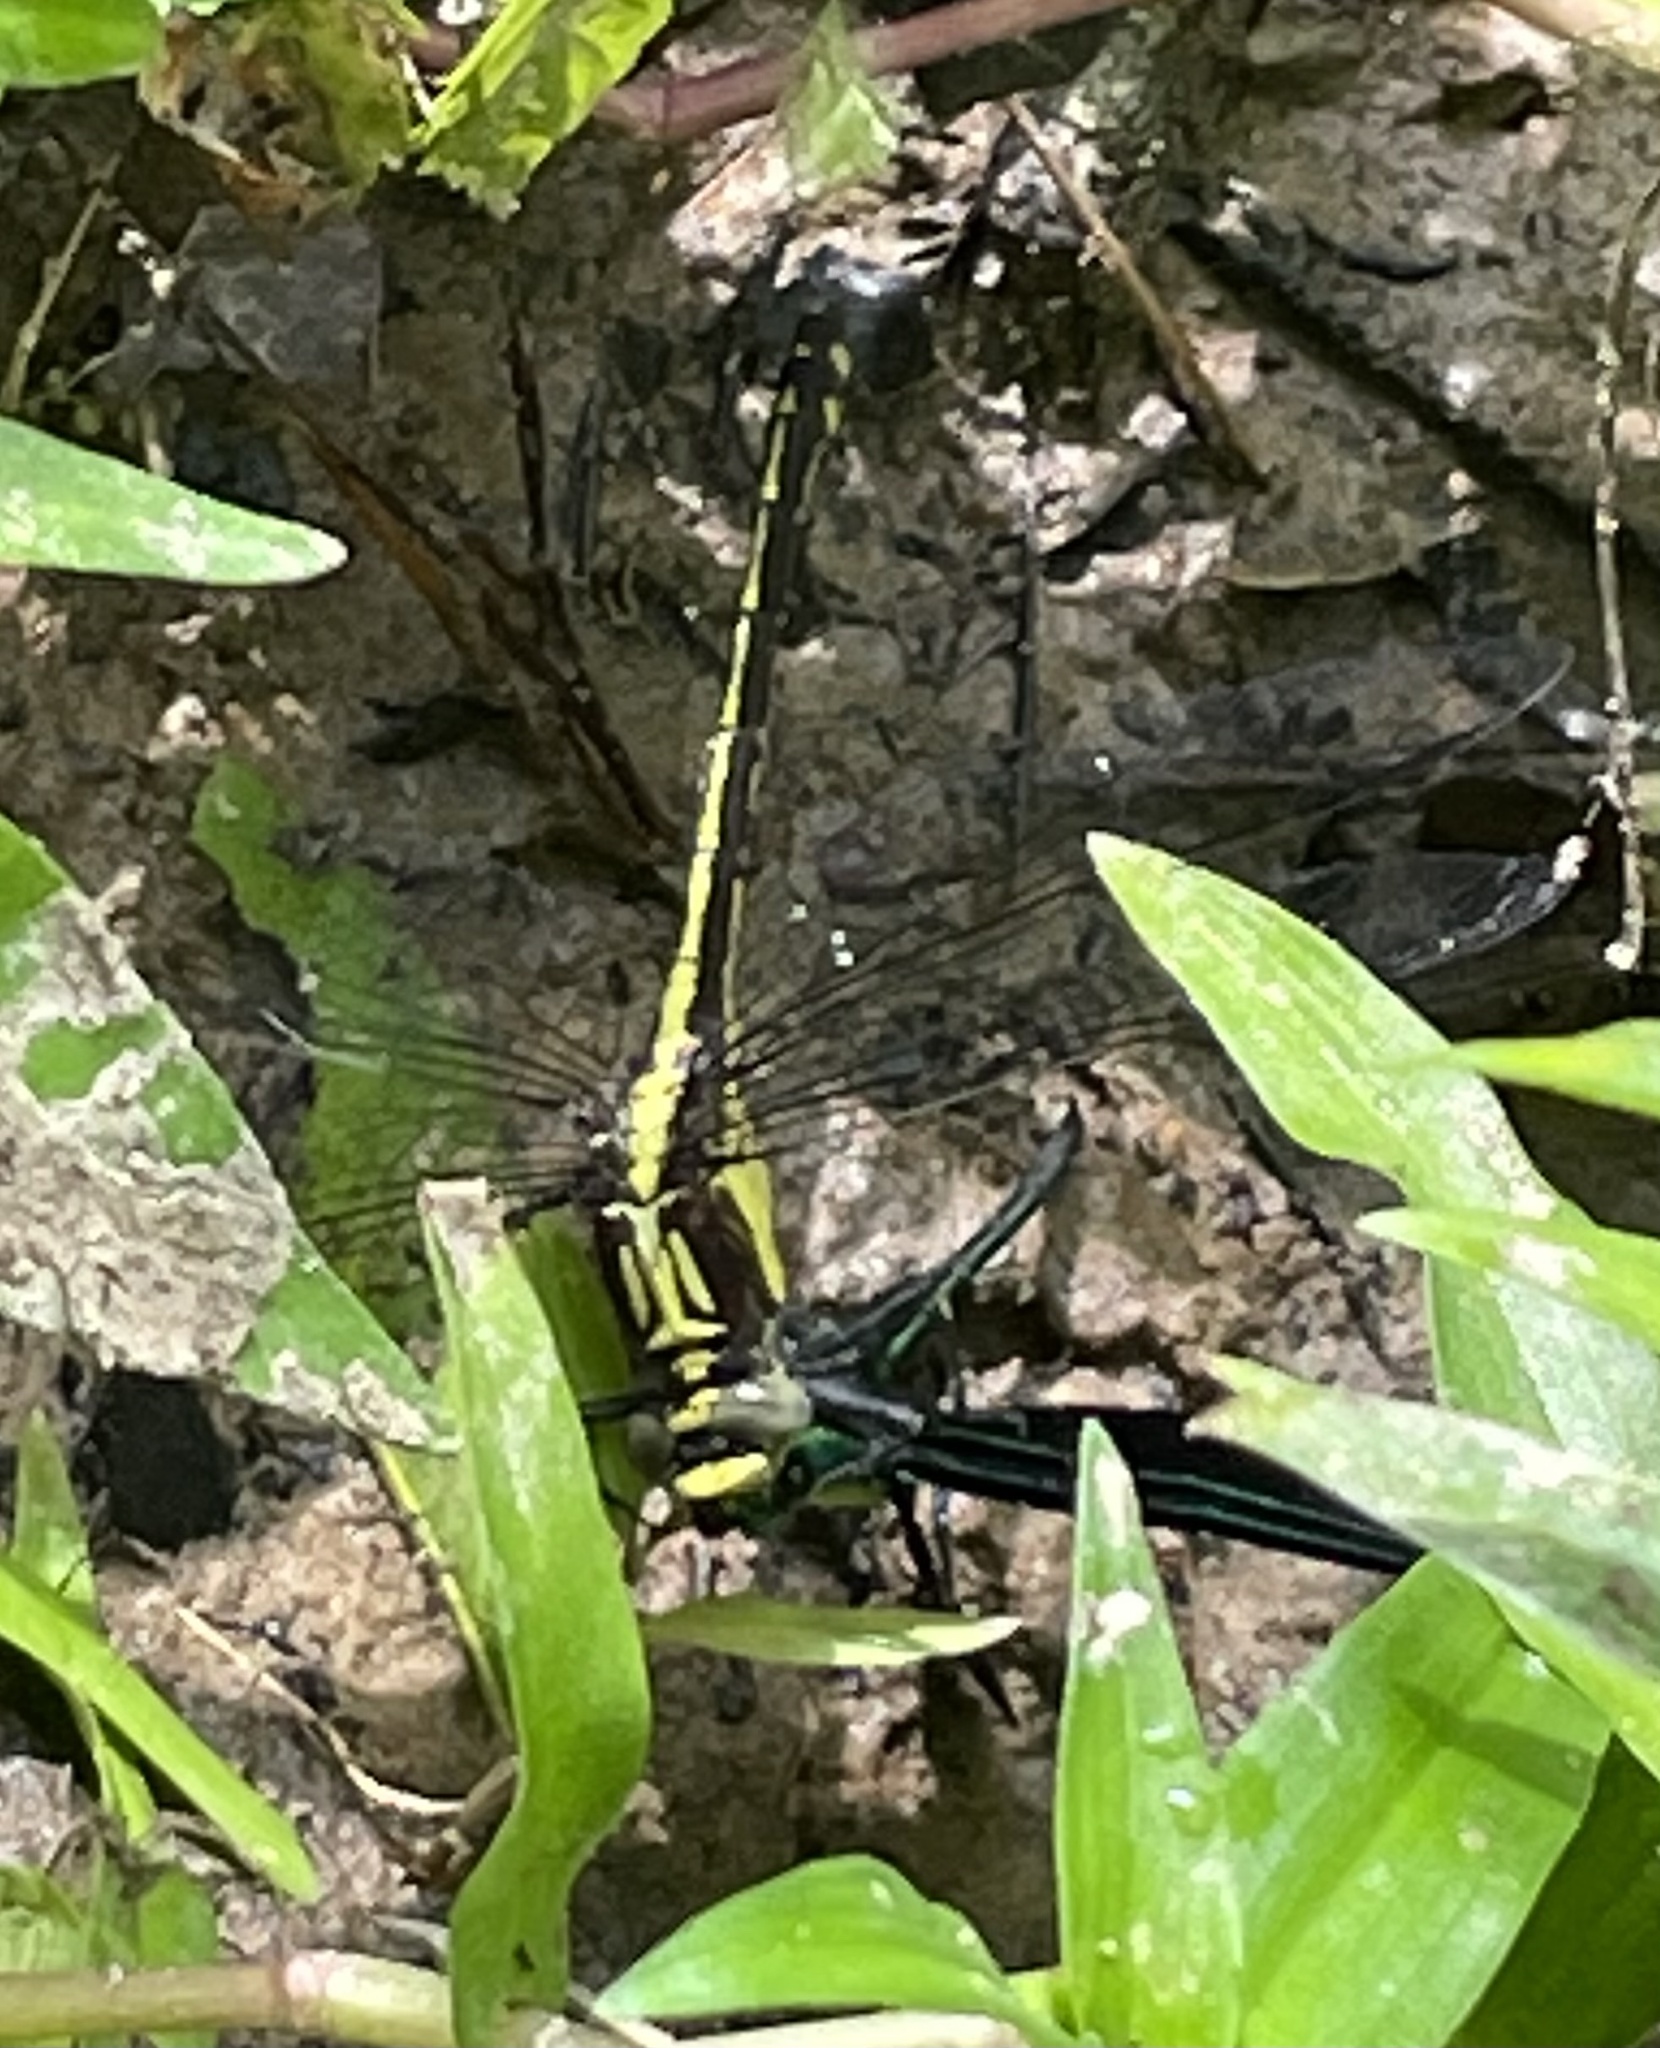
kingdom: Animalia
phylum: Arthropoda
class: Insecta
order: Odonata
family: Gomphidae
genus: Dromogomphus
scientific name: Dromogomphus spinosus
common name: Black-shouldered spinyleg
